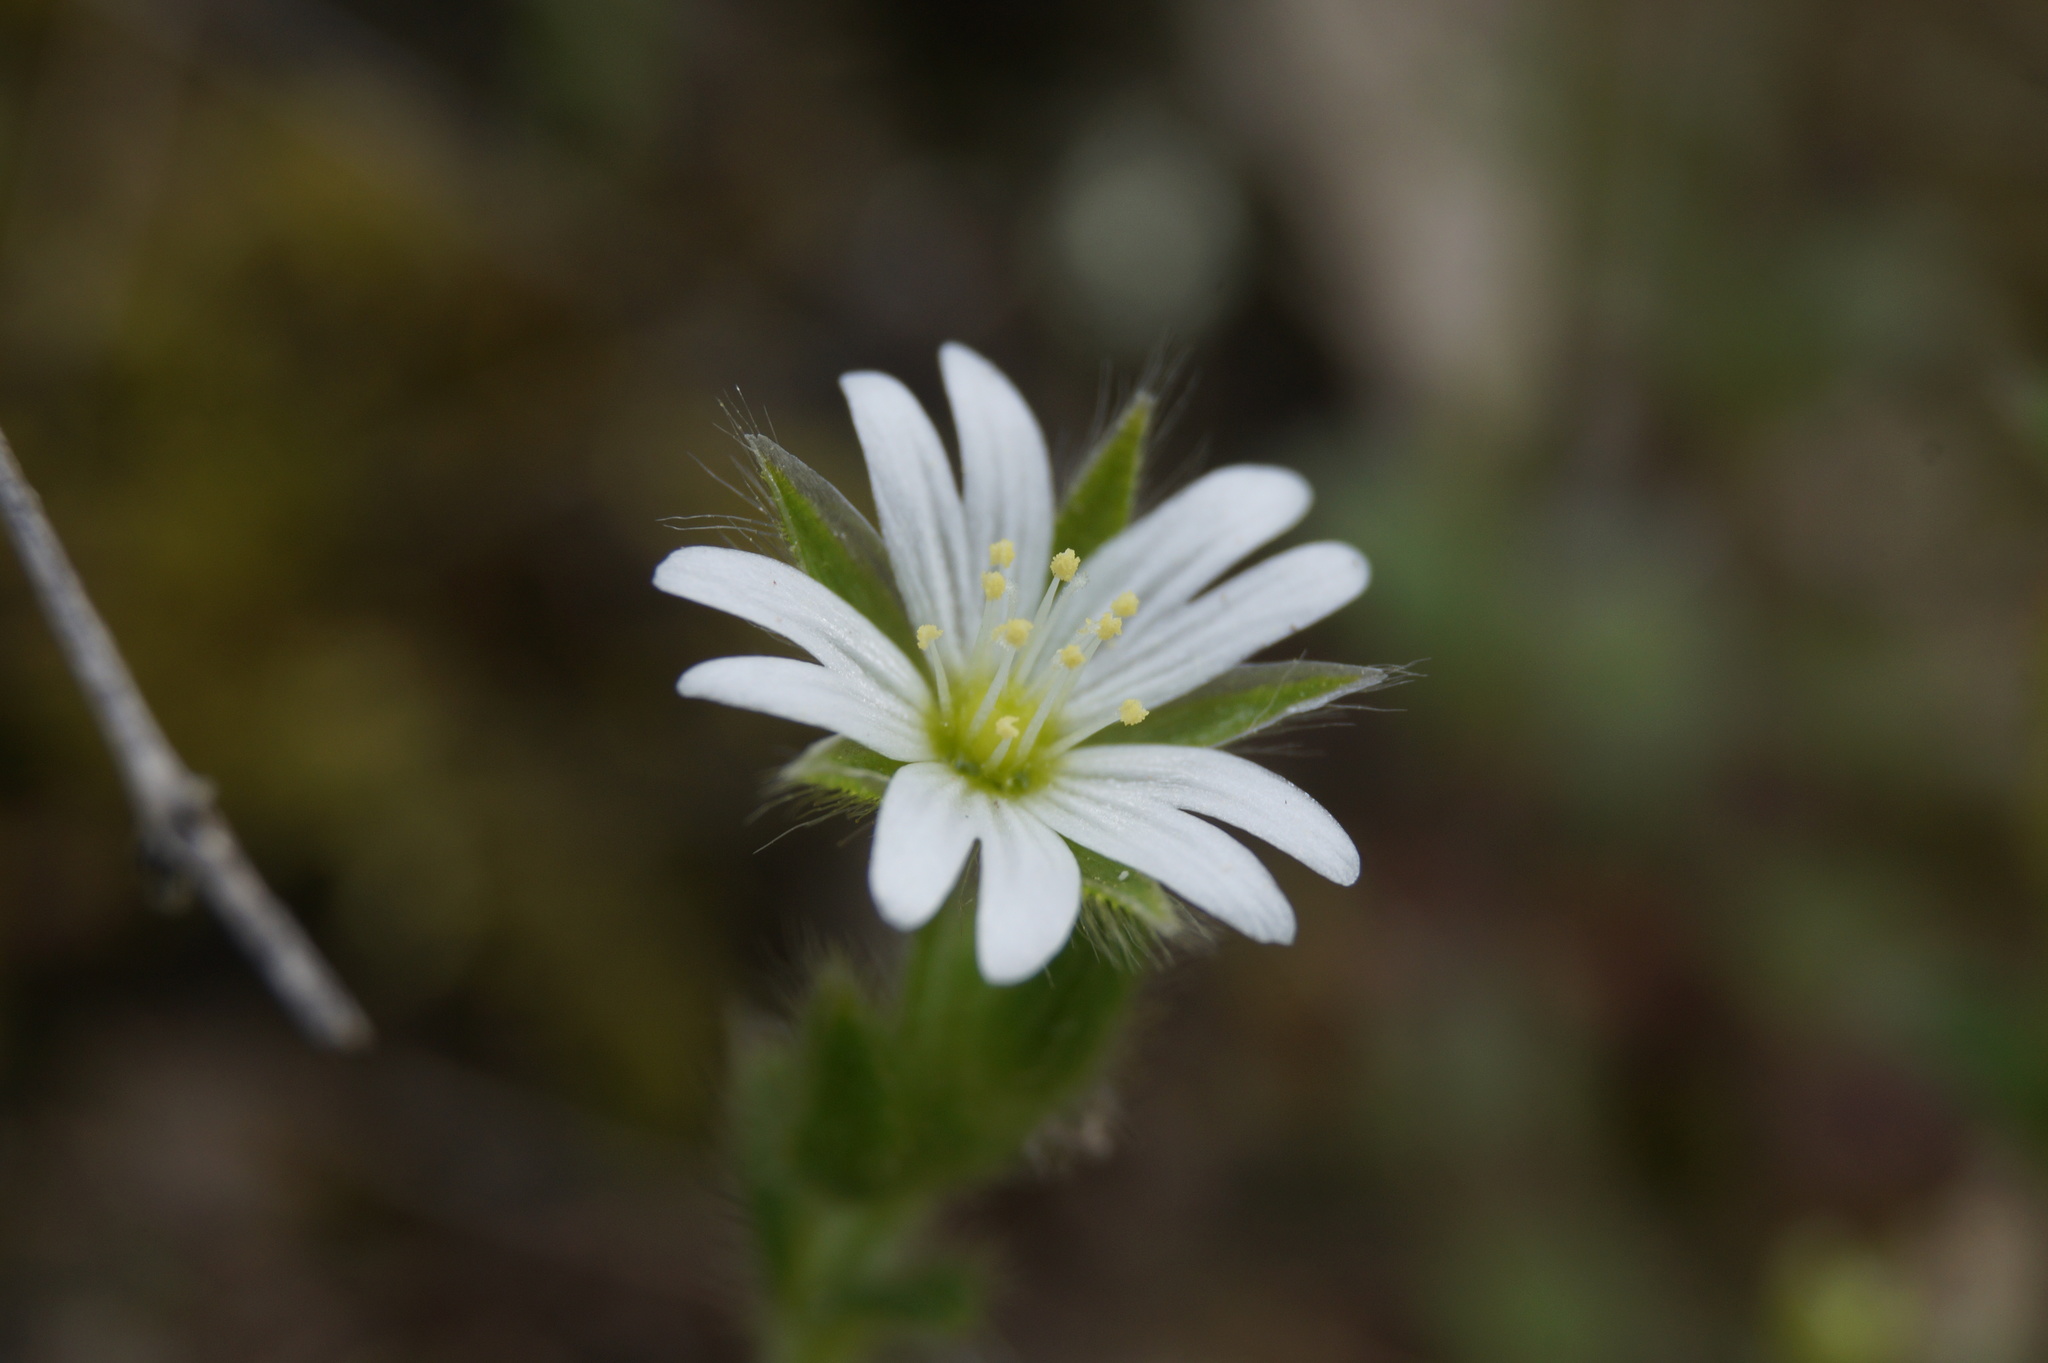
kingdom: Plantae
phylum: Tracheophyta
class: Magnoliopsida
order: Caryophyllales
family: Caryophyllaceae
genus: Cerastium
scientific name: Cerastium brachypetalum
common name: Grey mouse-ear
